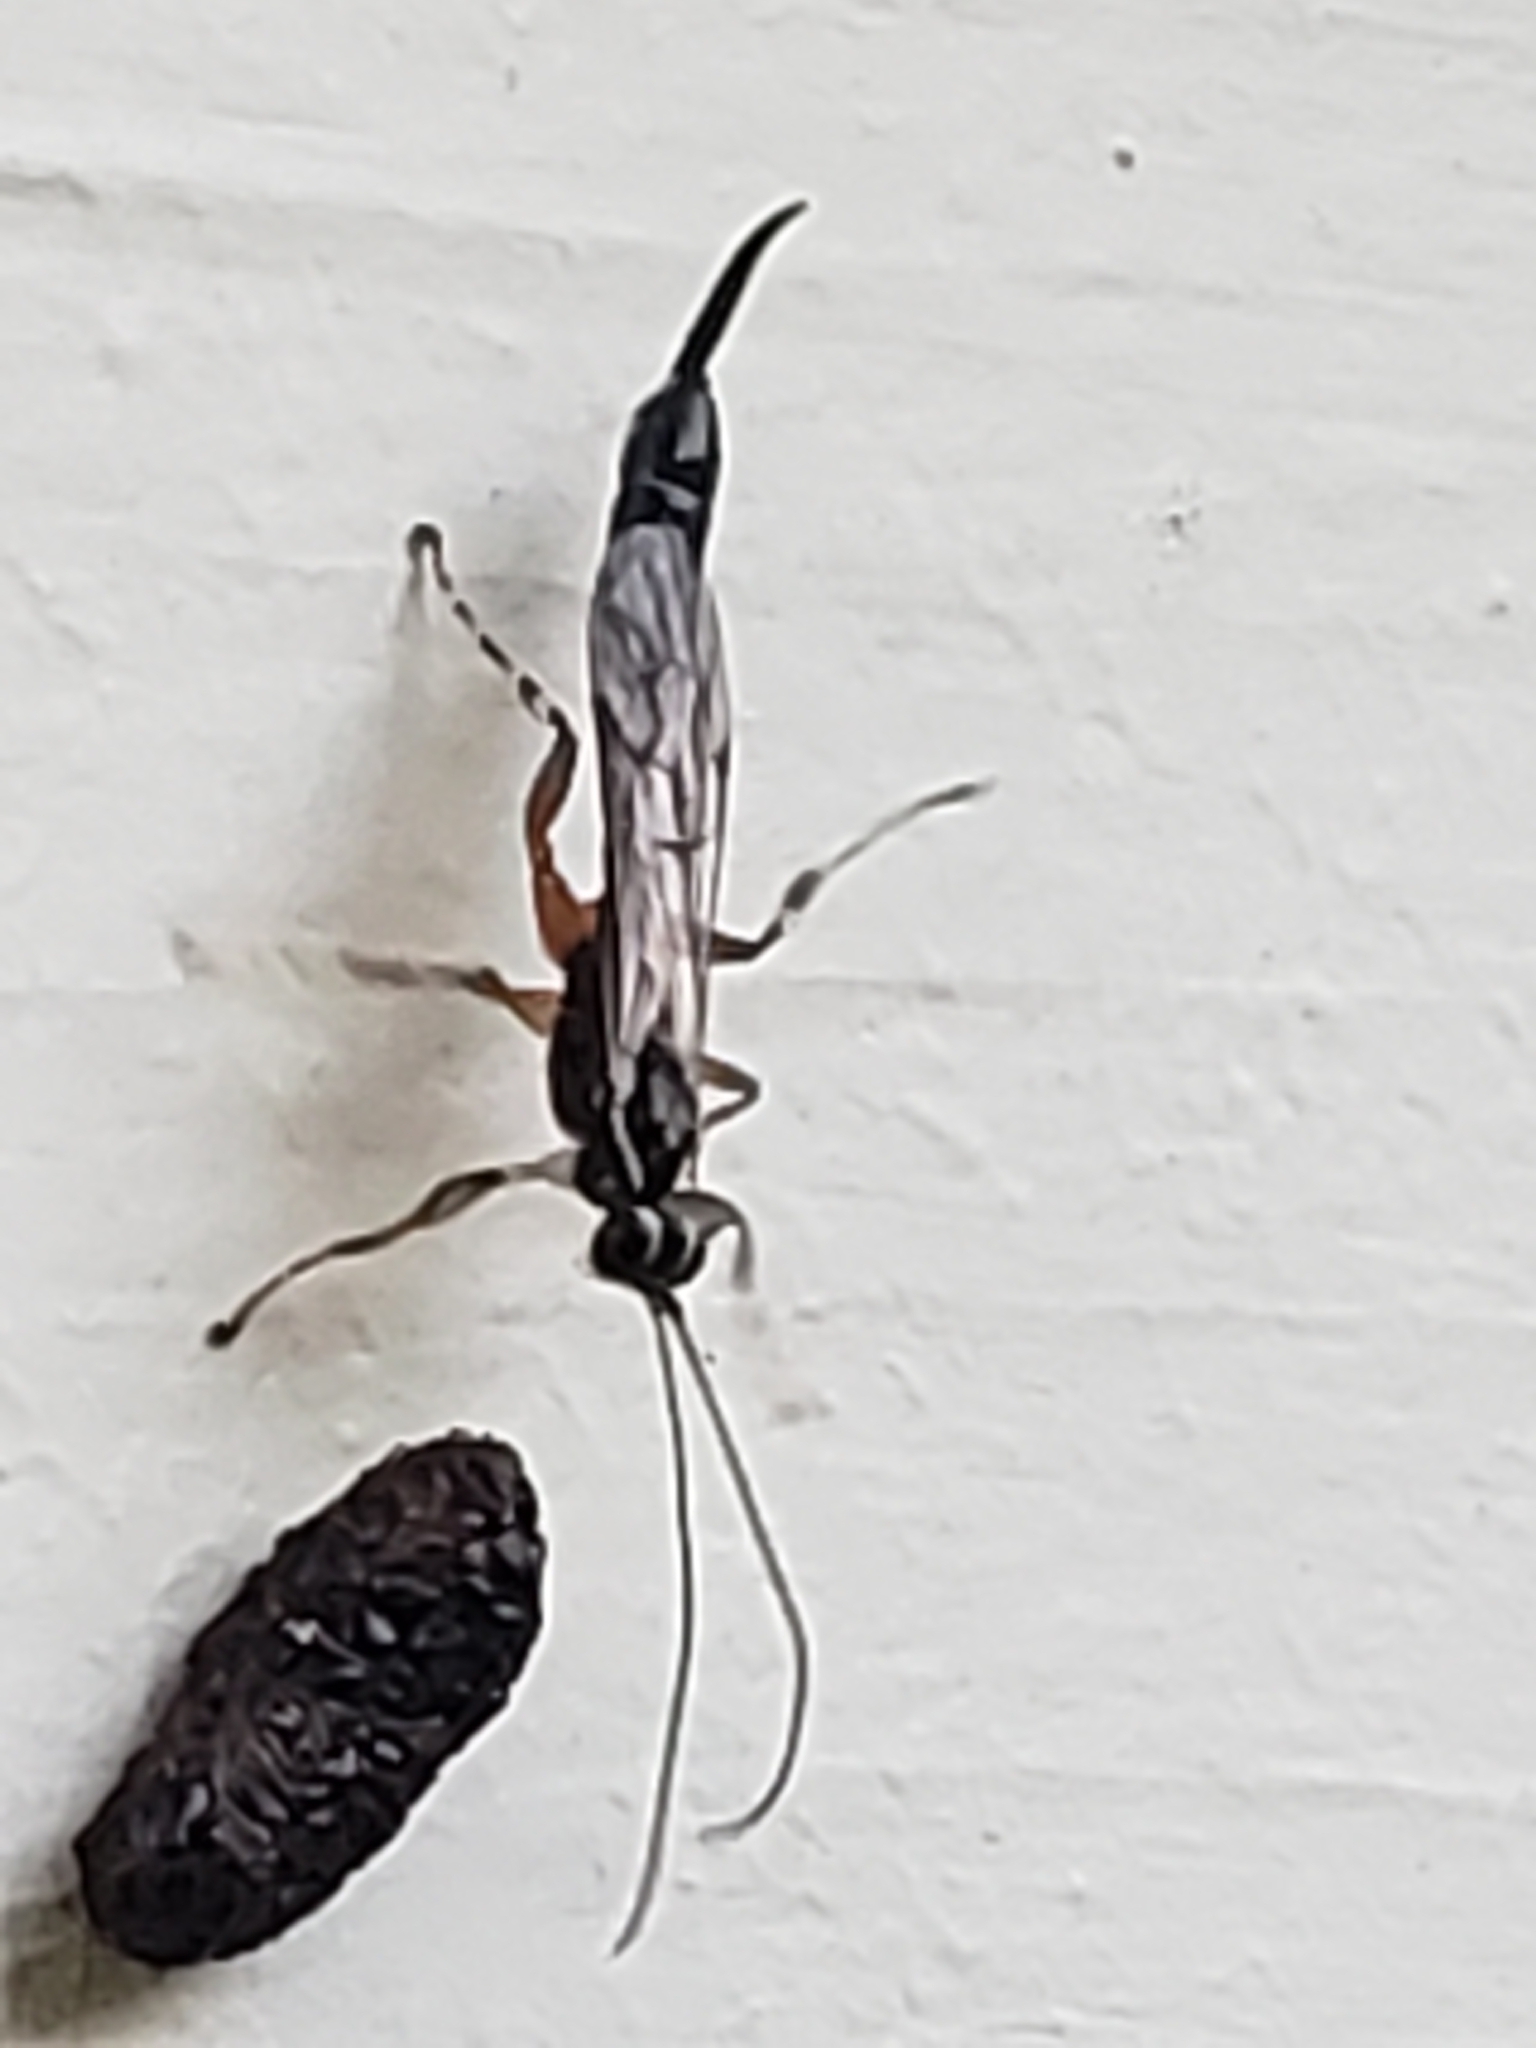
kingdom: Animalia
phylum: Arthropoda
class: Insecta
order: Hymenoptera
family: Ichneumonidae
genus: Clistopyga
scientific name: Clistopyga recurva
